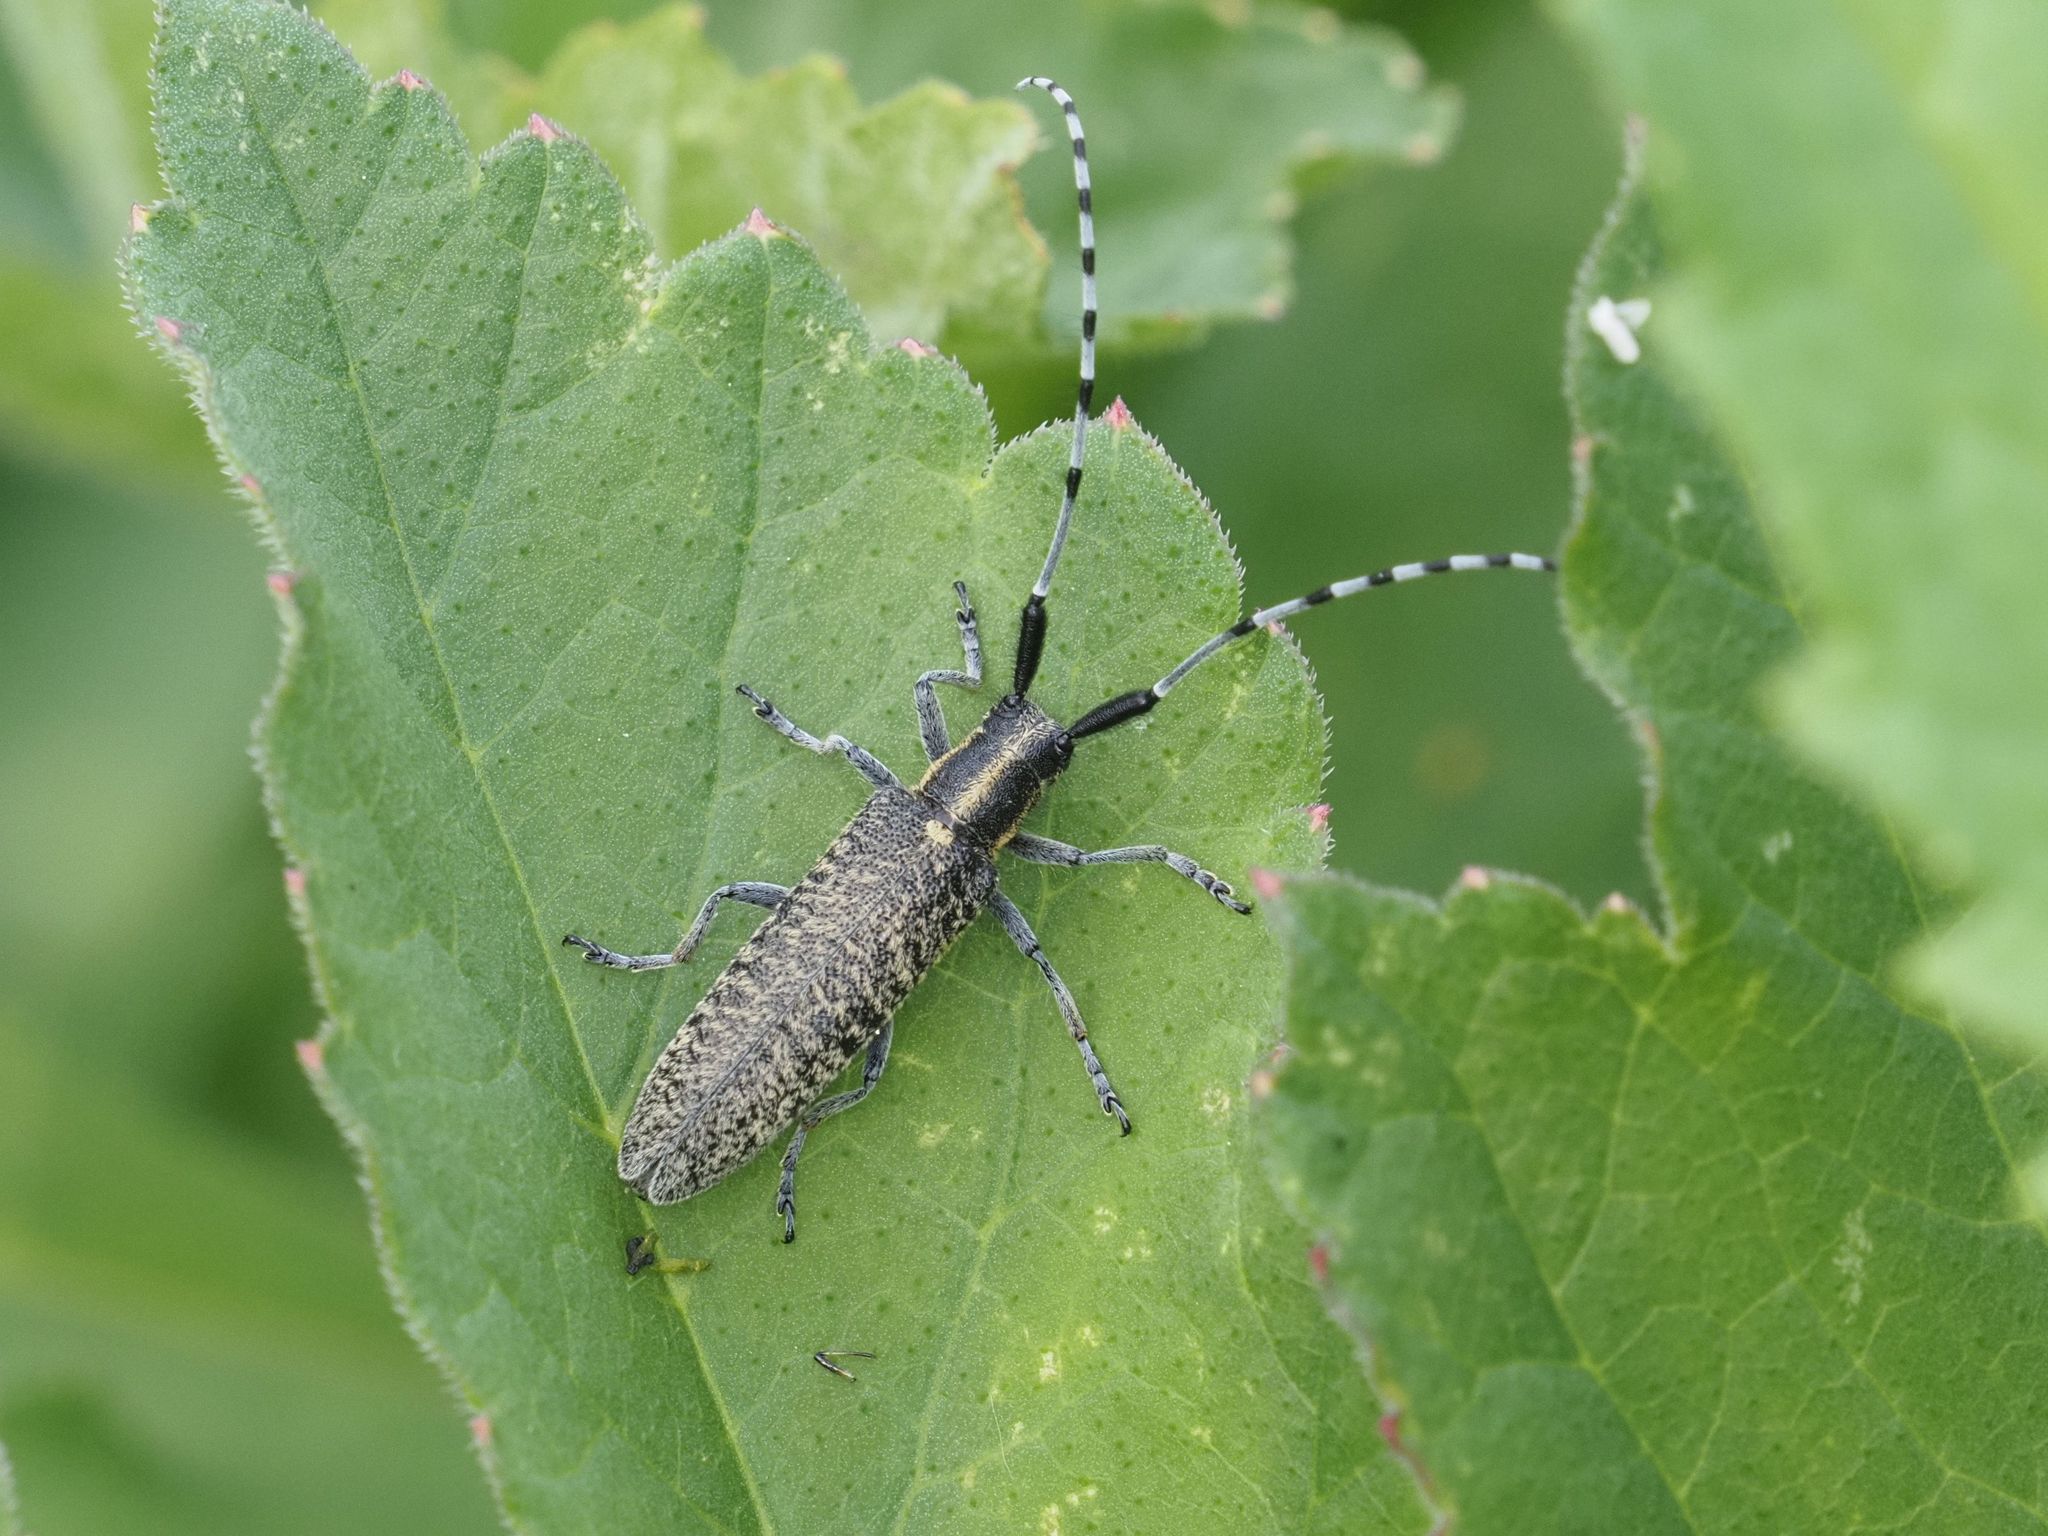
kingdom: Animalia
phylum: Arthropoda
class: Insecta
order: Coleoptera
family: Cerambycidae
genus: Agapanthia
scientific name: Agapanthia villosoviridescens
